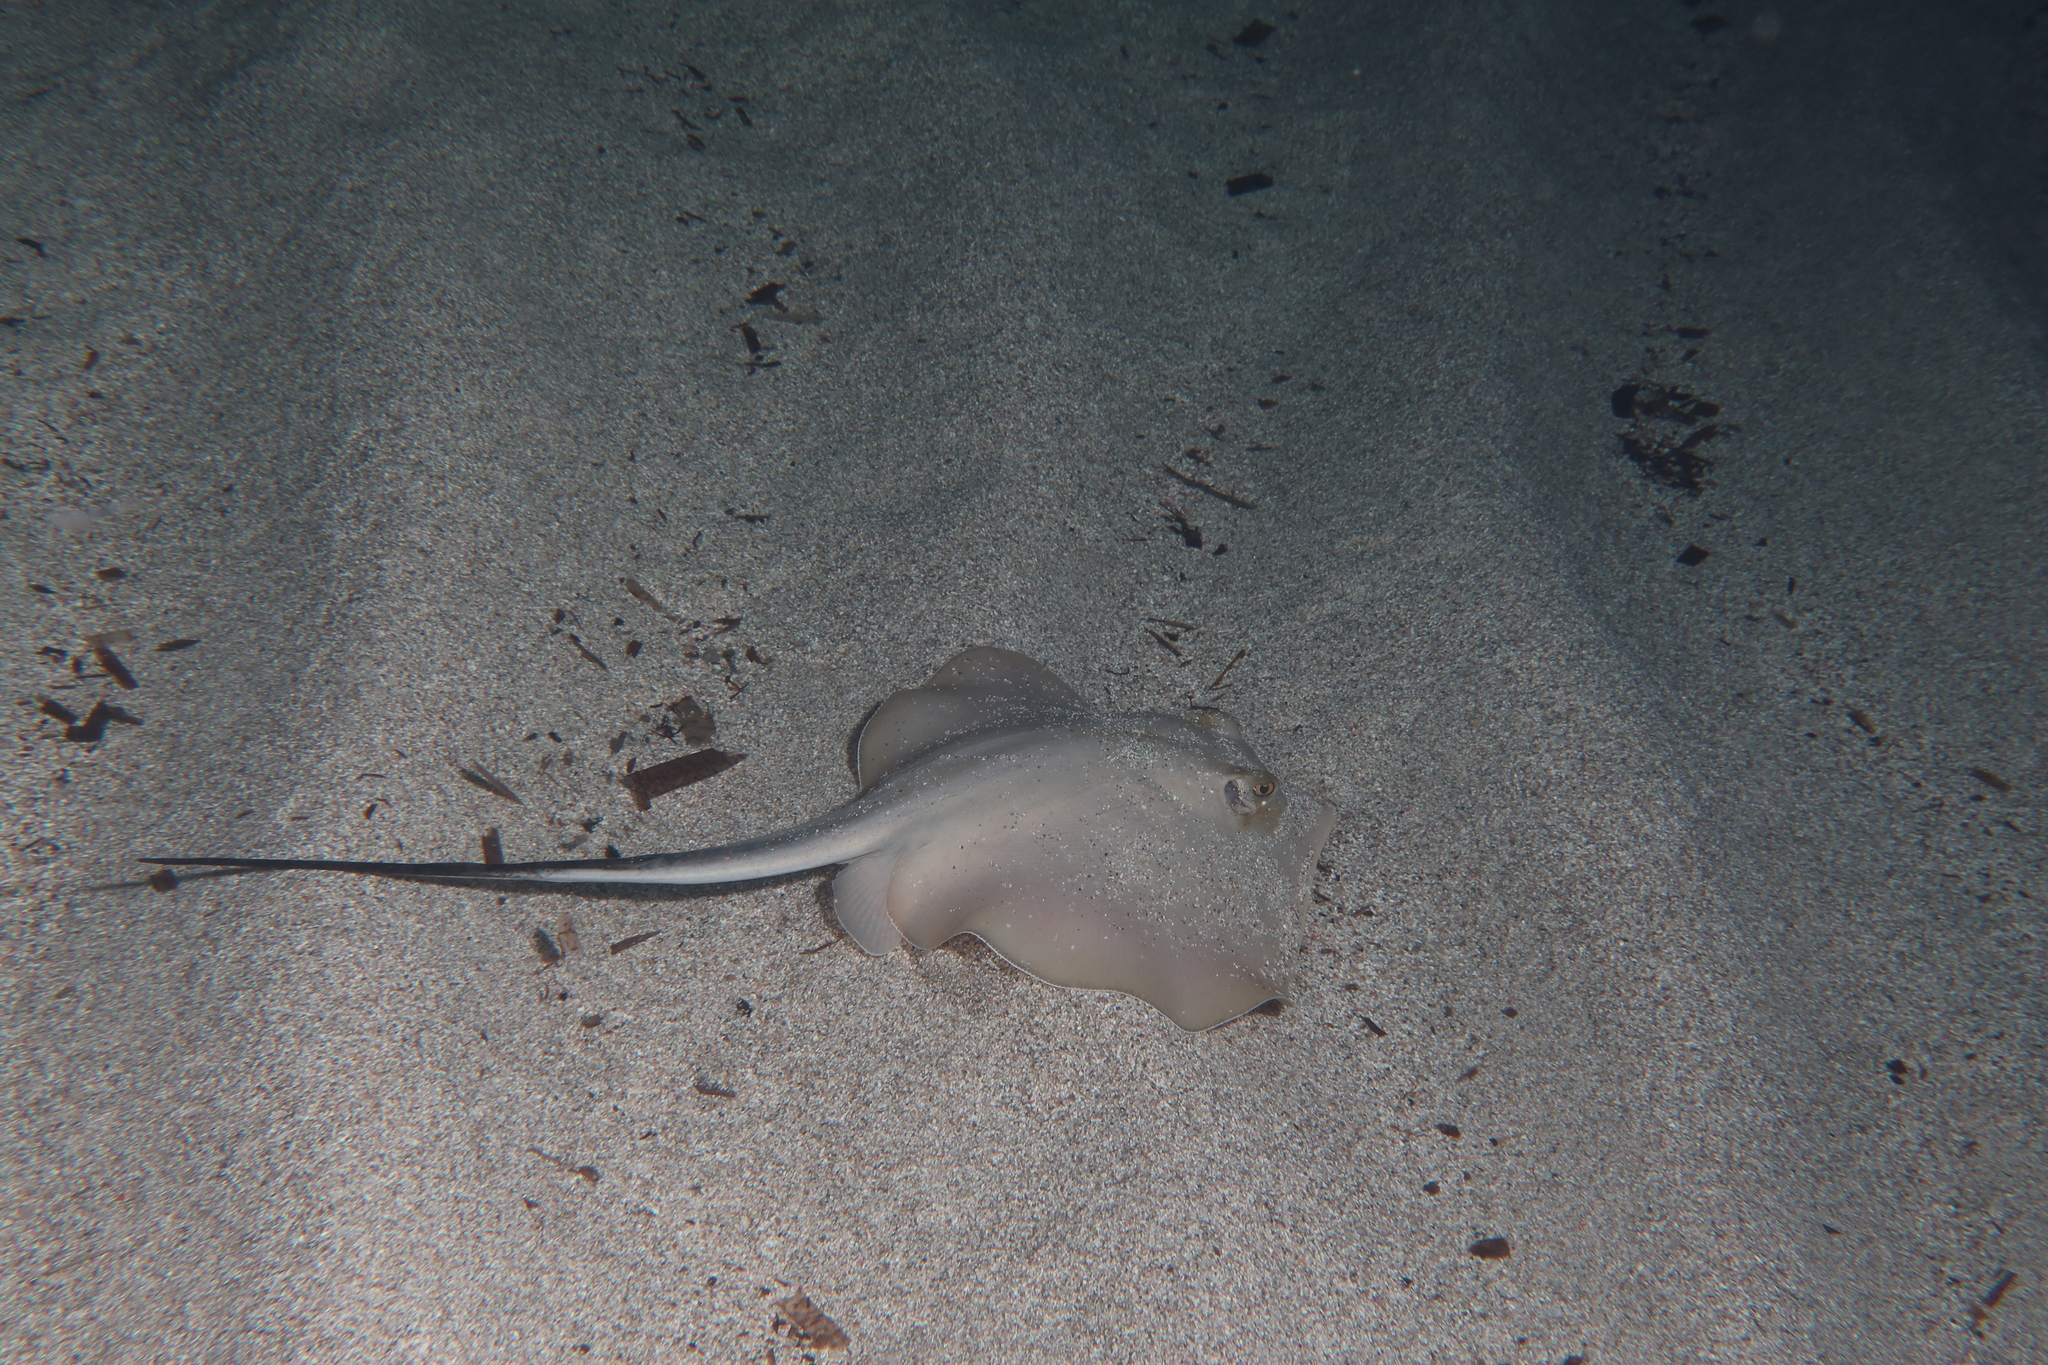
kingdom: Animalia
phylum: Chordata
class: Elasmobranchii
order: Myliobatiformes
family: Dasyatidae
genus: Dasyatis
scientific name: Dasyatis pastinaca
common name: Common stingray
